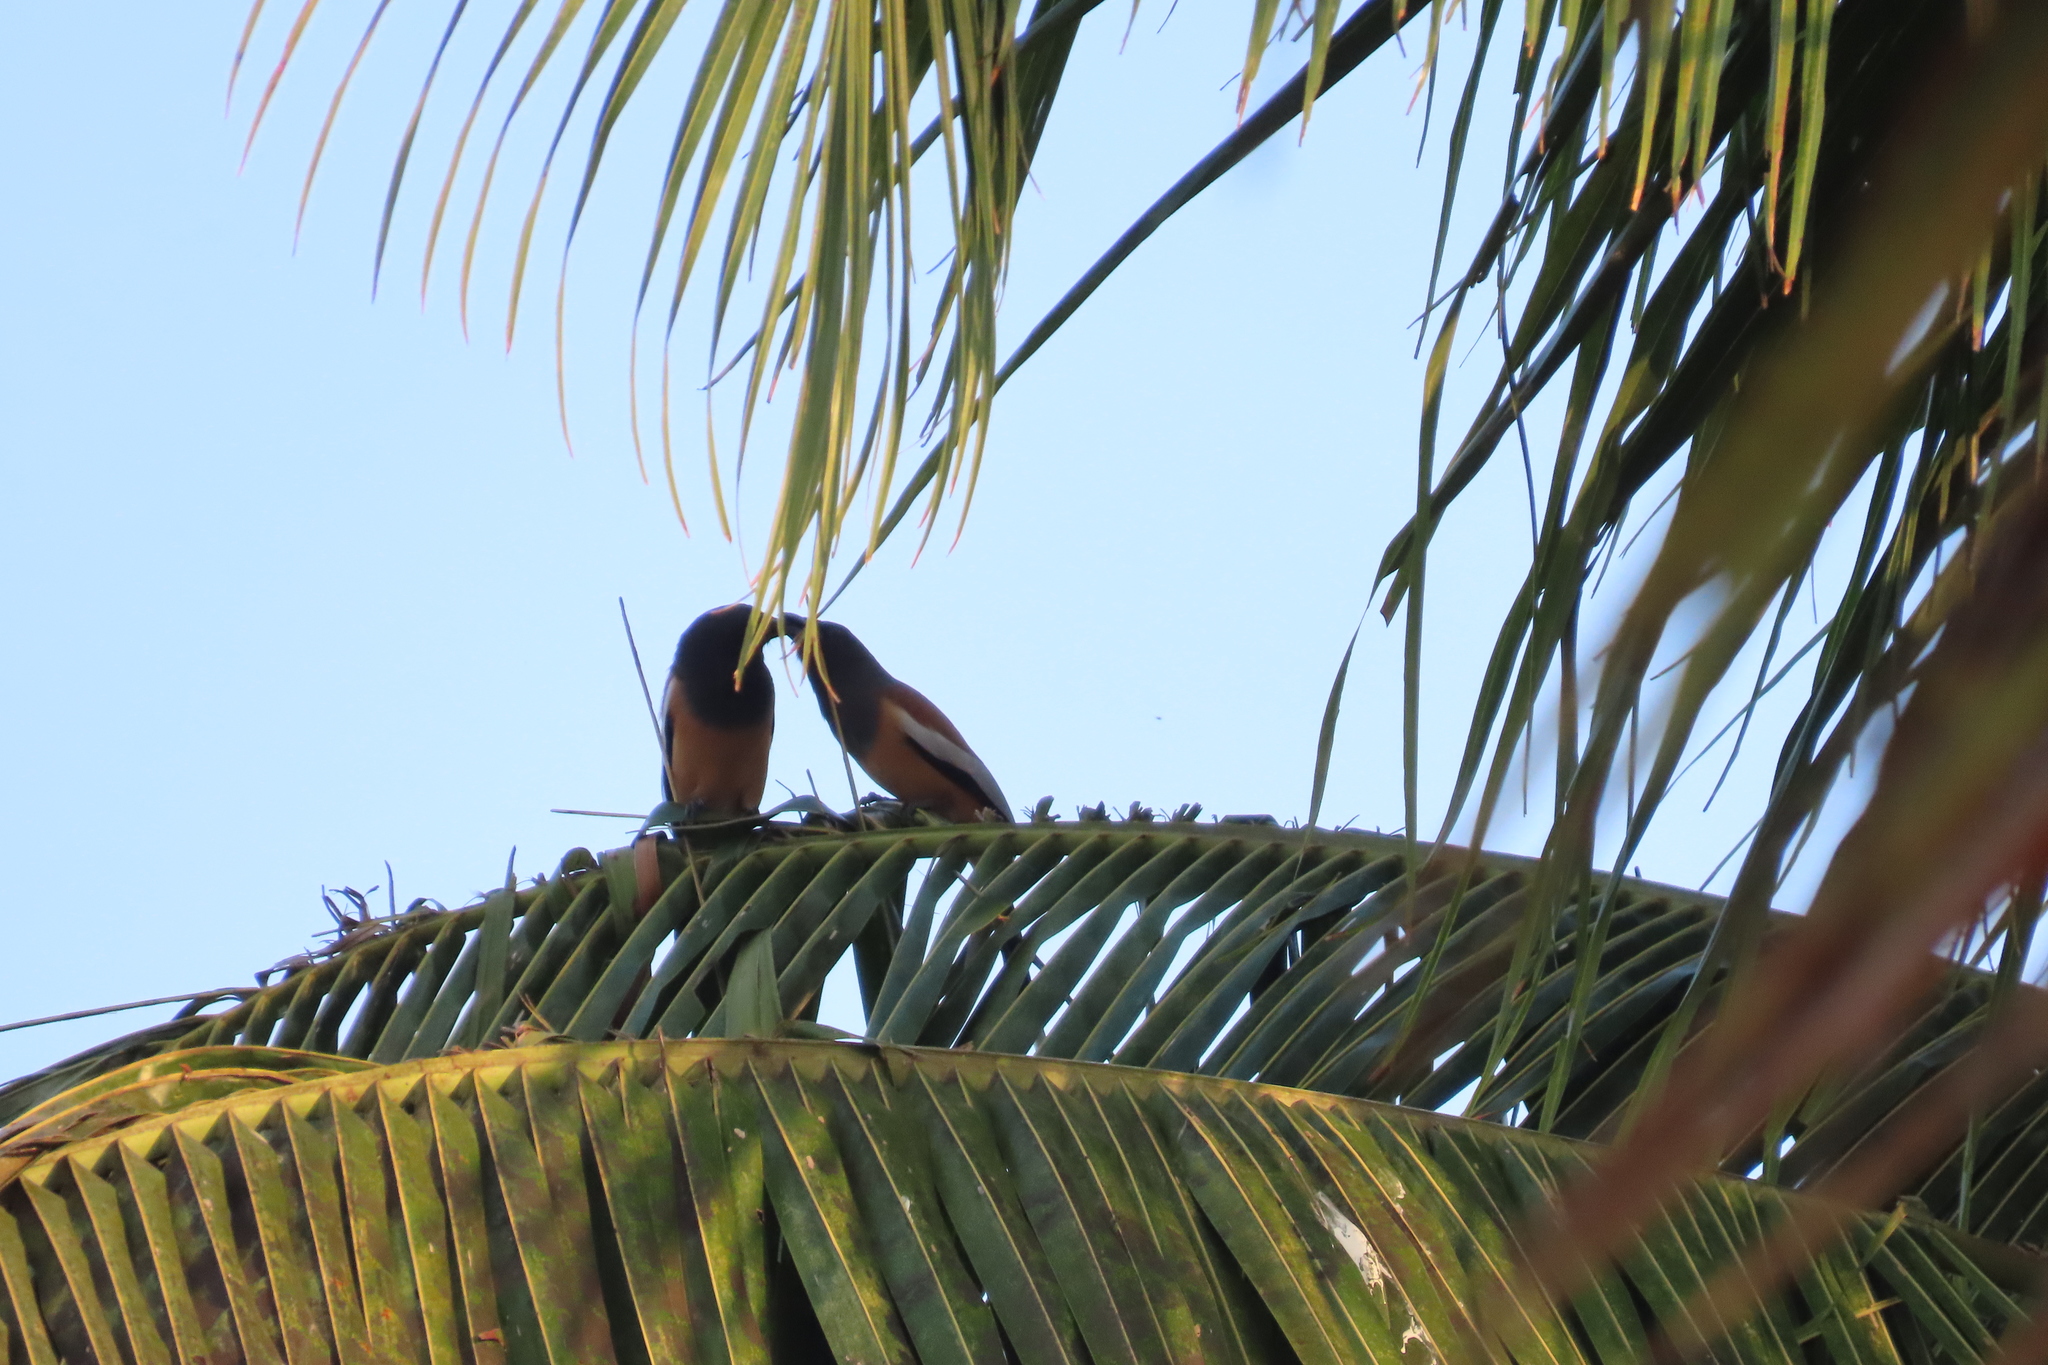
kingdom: Animalia
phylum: Chordata
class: Aves
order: Passeriformes
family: Corvidae
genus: Dendrocitta
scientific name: Dendrocitta vagabunda
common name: Rufous treepie
